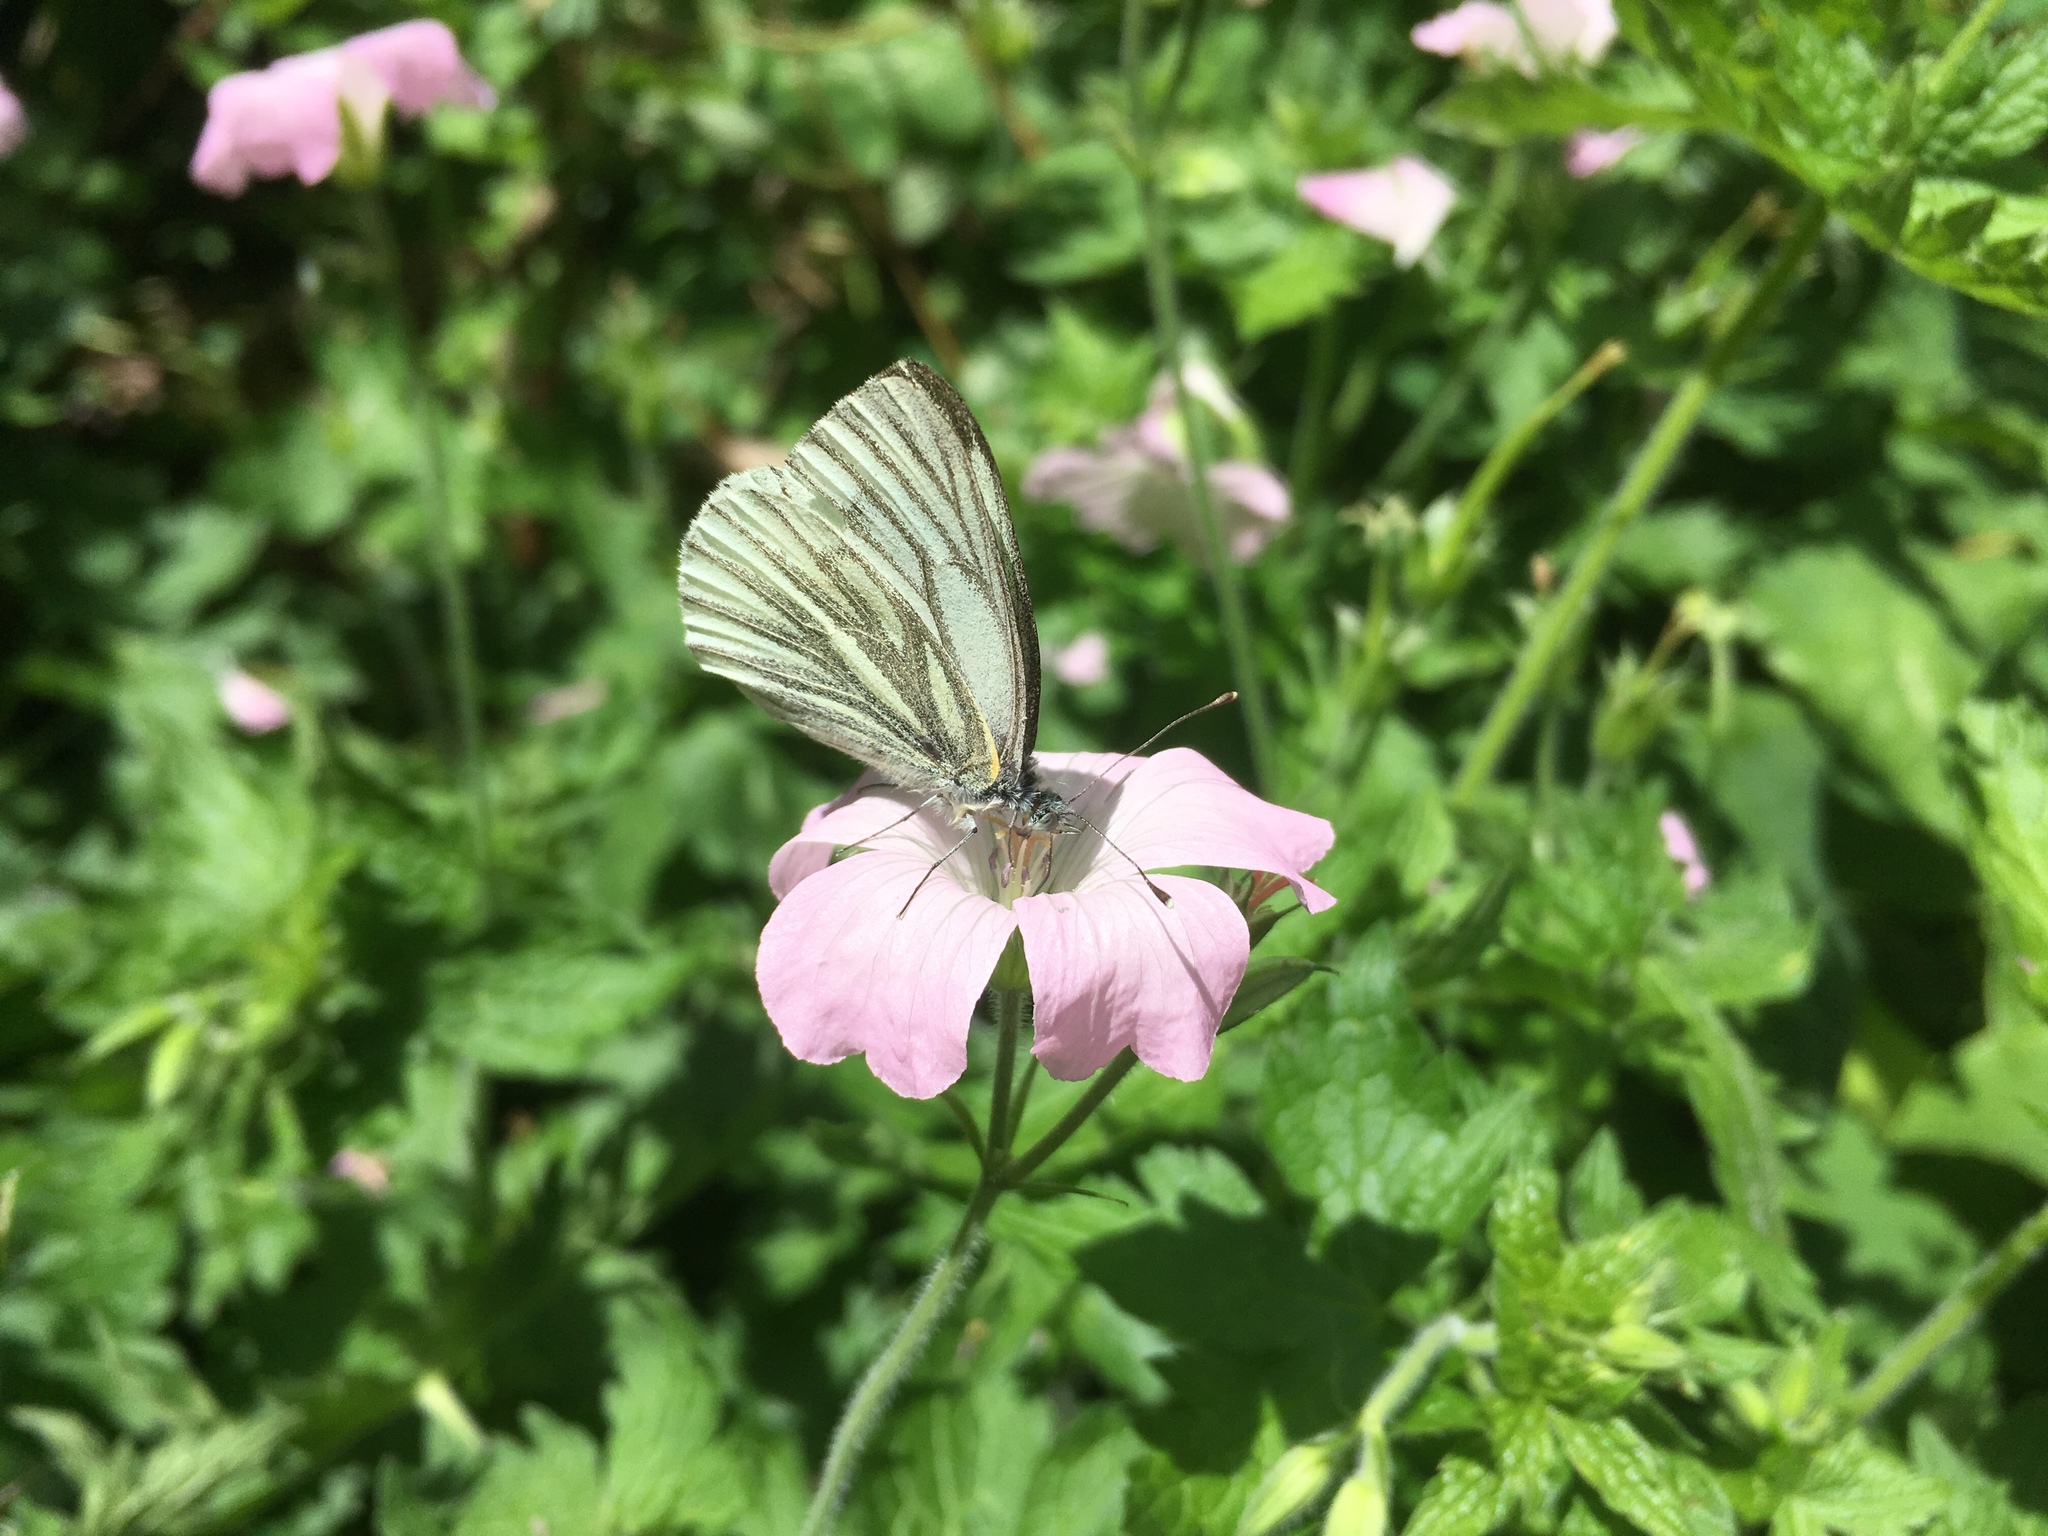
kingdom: Animalia
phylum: Arthropoda
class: Insecta
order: Lepidoptera
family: Pieridae
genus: Pieris
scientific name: Pieris napi
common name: Green-veined white
